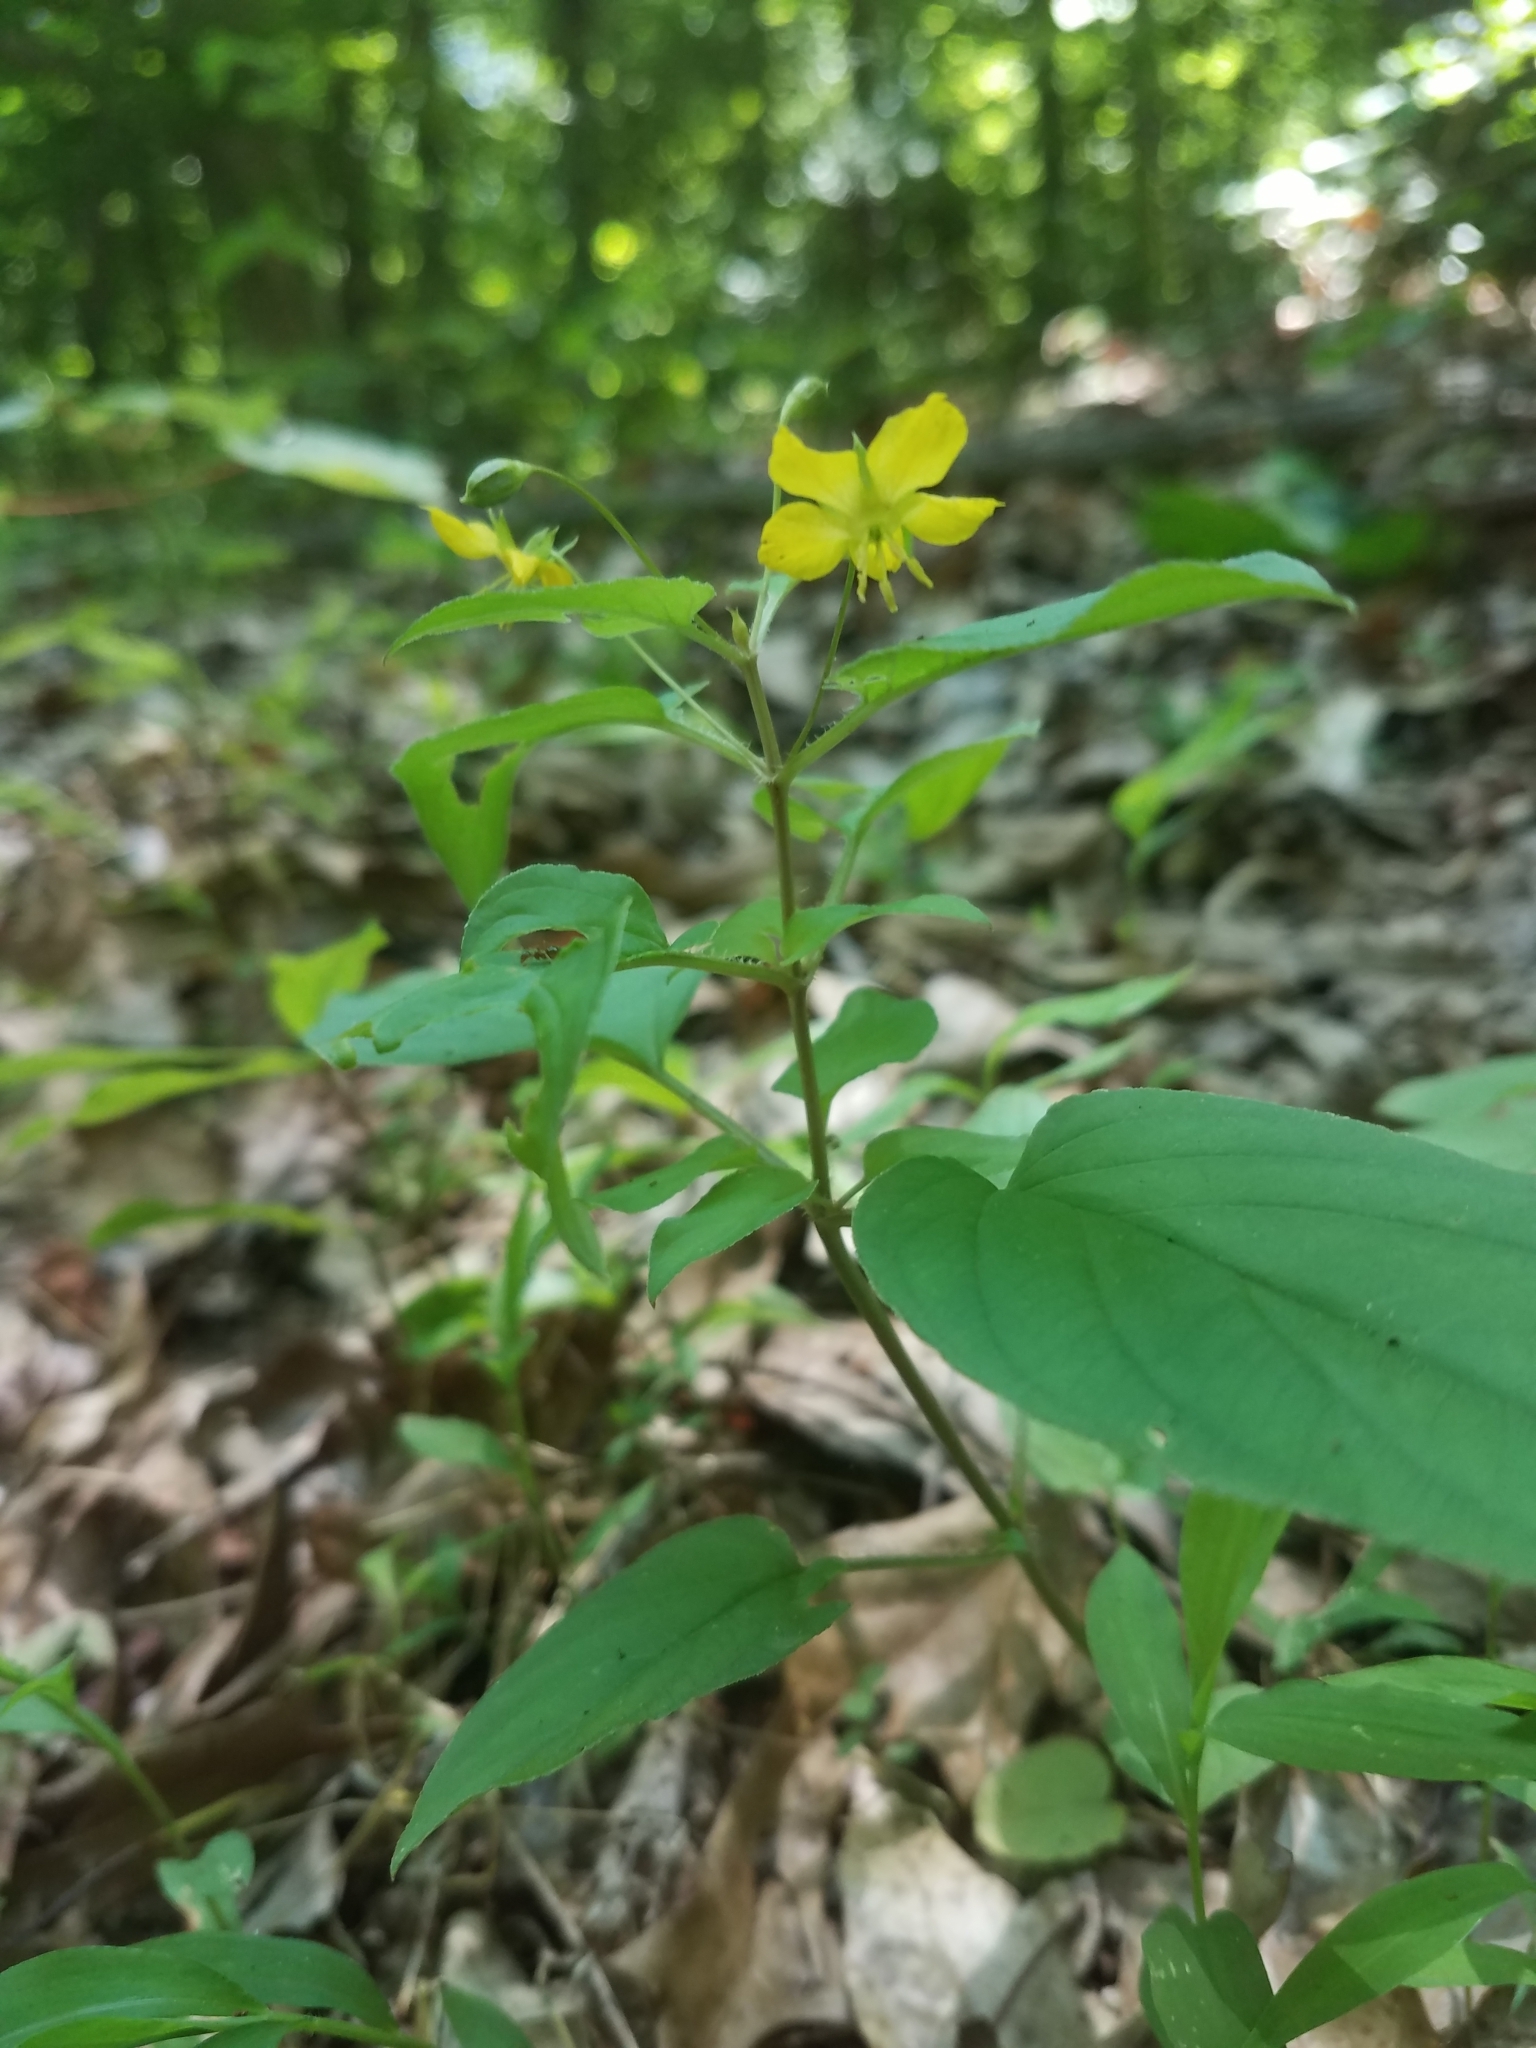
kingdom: Plantae
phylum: Tracheophyta
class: Magnoliopsida
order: Ericales
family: Primulaceae
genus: Lysimachia
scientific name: Lysimachia ciliata
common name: Fringed loosestrife
